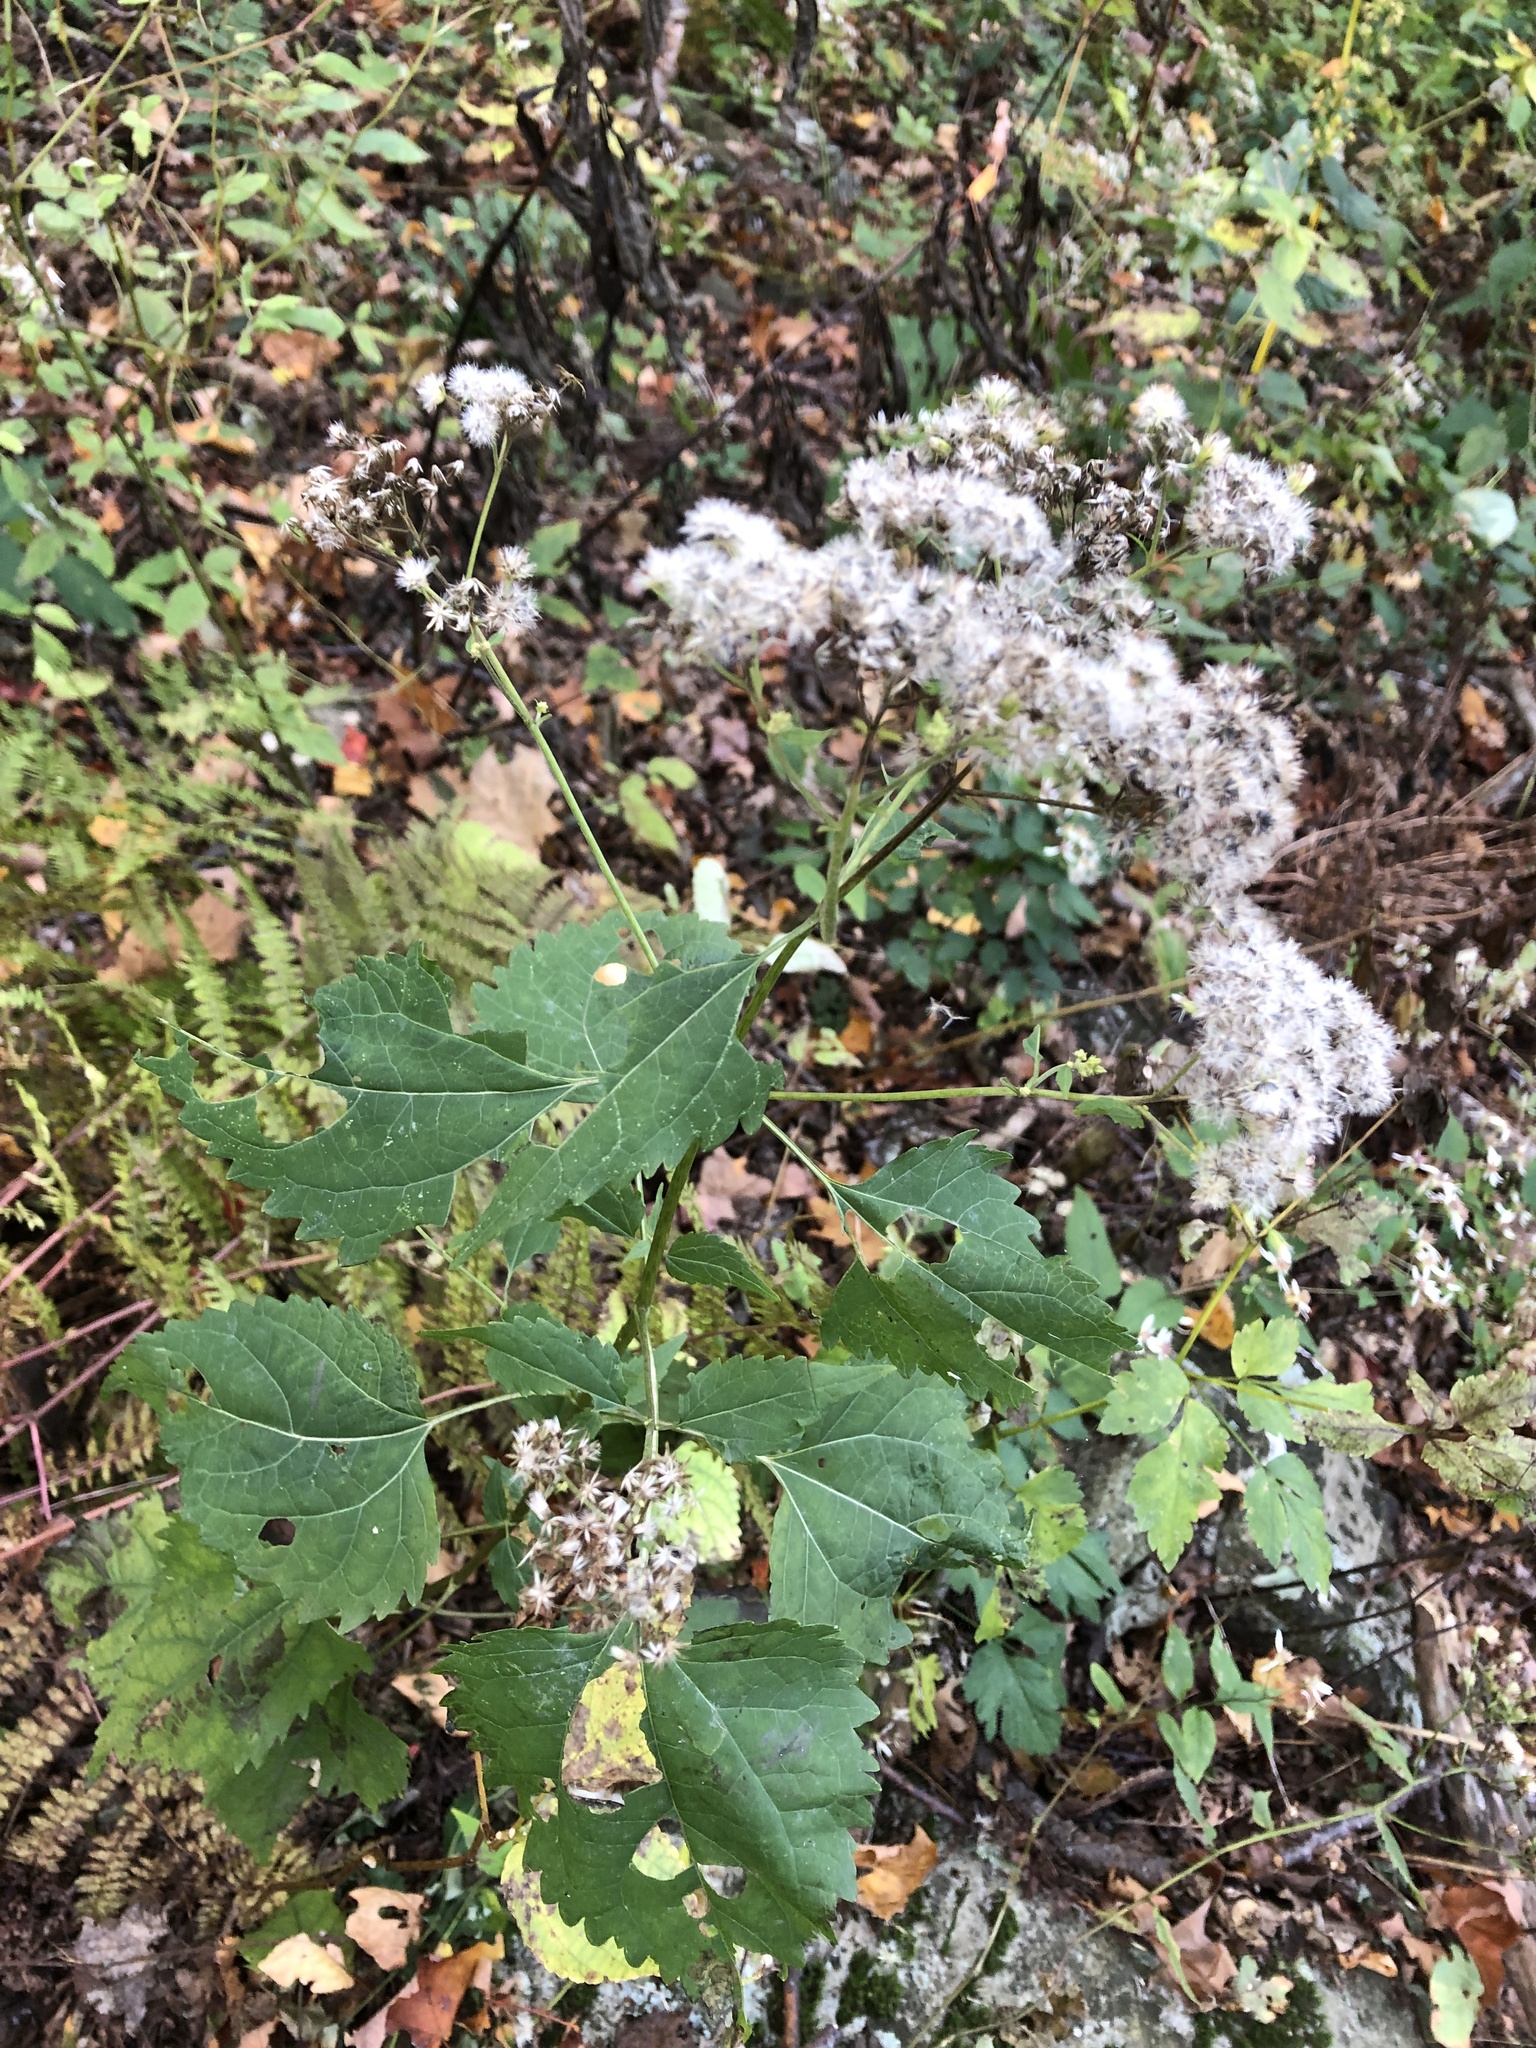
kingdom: Plantae
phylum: Tracheophyta
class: Magnoliopsida
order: Asterales
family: Asteraceae
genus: Ageratina
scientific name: Ageratina altissima
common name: White snakeroot
